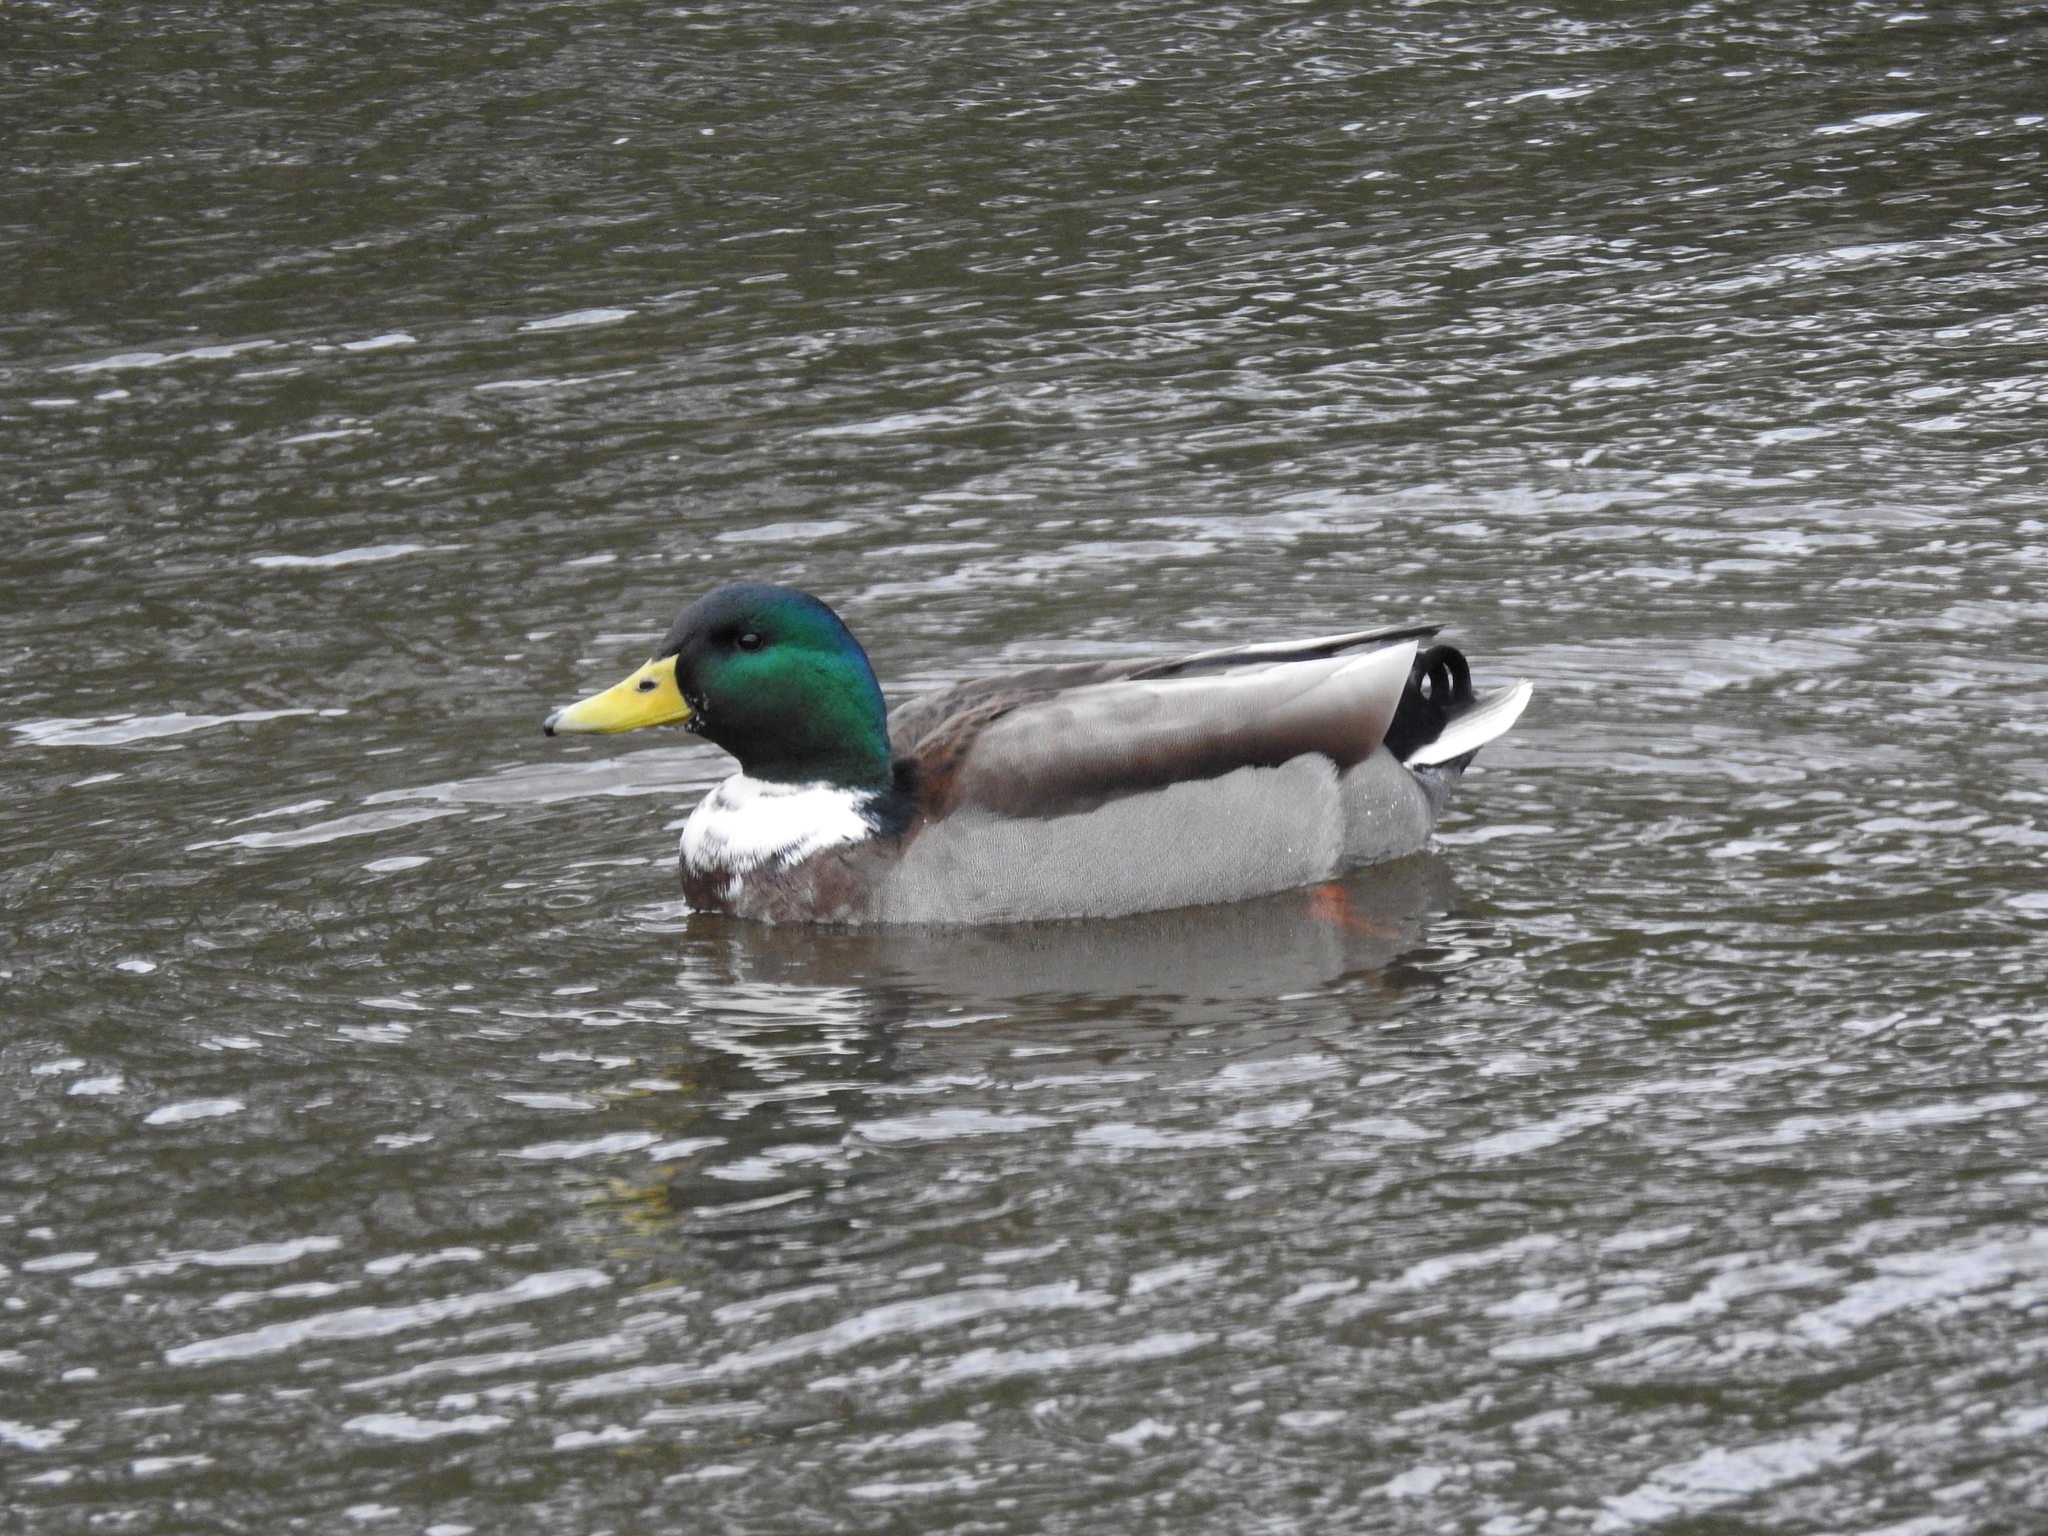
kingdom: Animalia
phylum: Chordata
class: Aves
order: Anseriformes
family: Anatidae
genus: Anas
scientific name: Anas platyrhynchos
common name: Mallard
